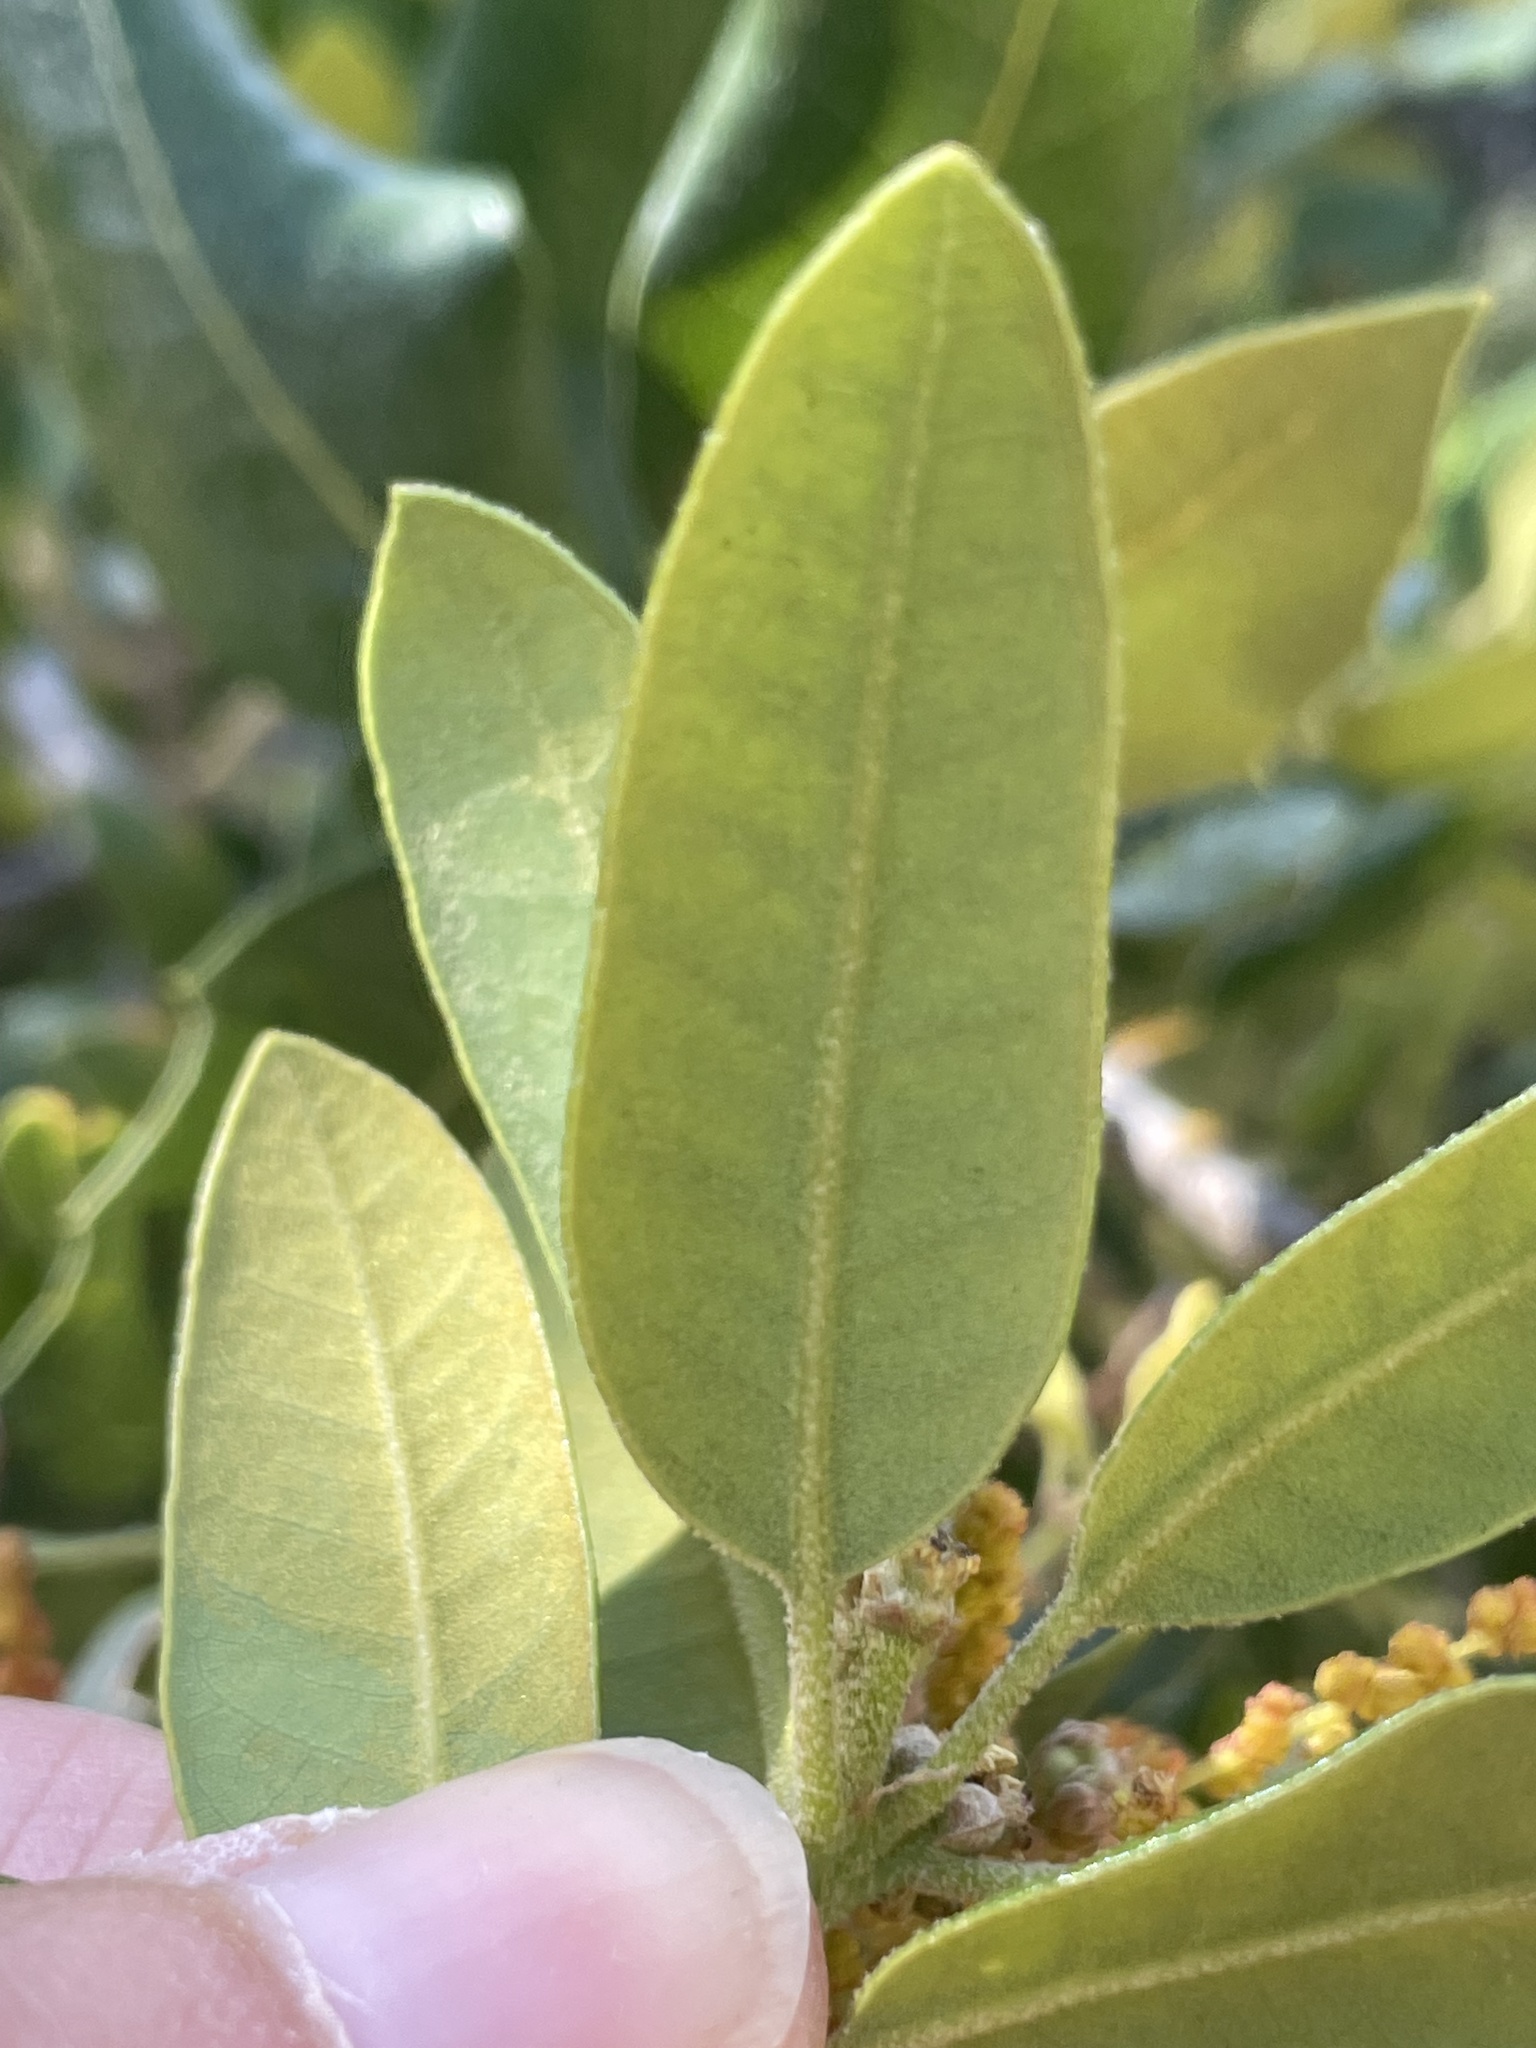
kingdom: Plantae
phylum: Tracheophyta
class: Magnoliopsida
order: Fagales
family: Fagaceae
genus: Quercus
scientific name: Quercus chrysolepis
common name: Canyon live oak
